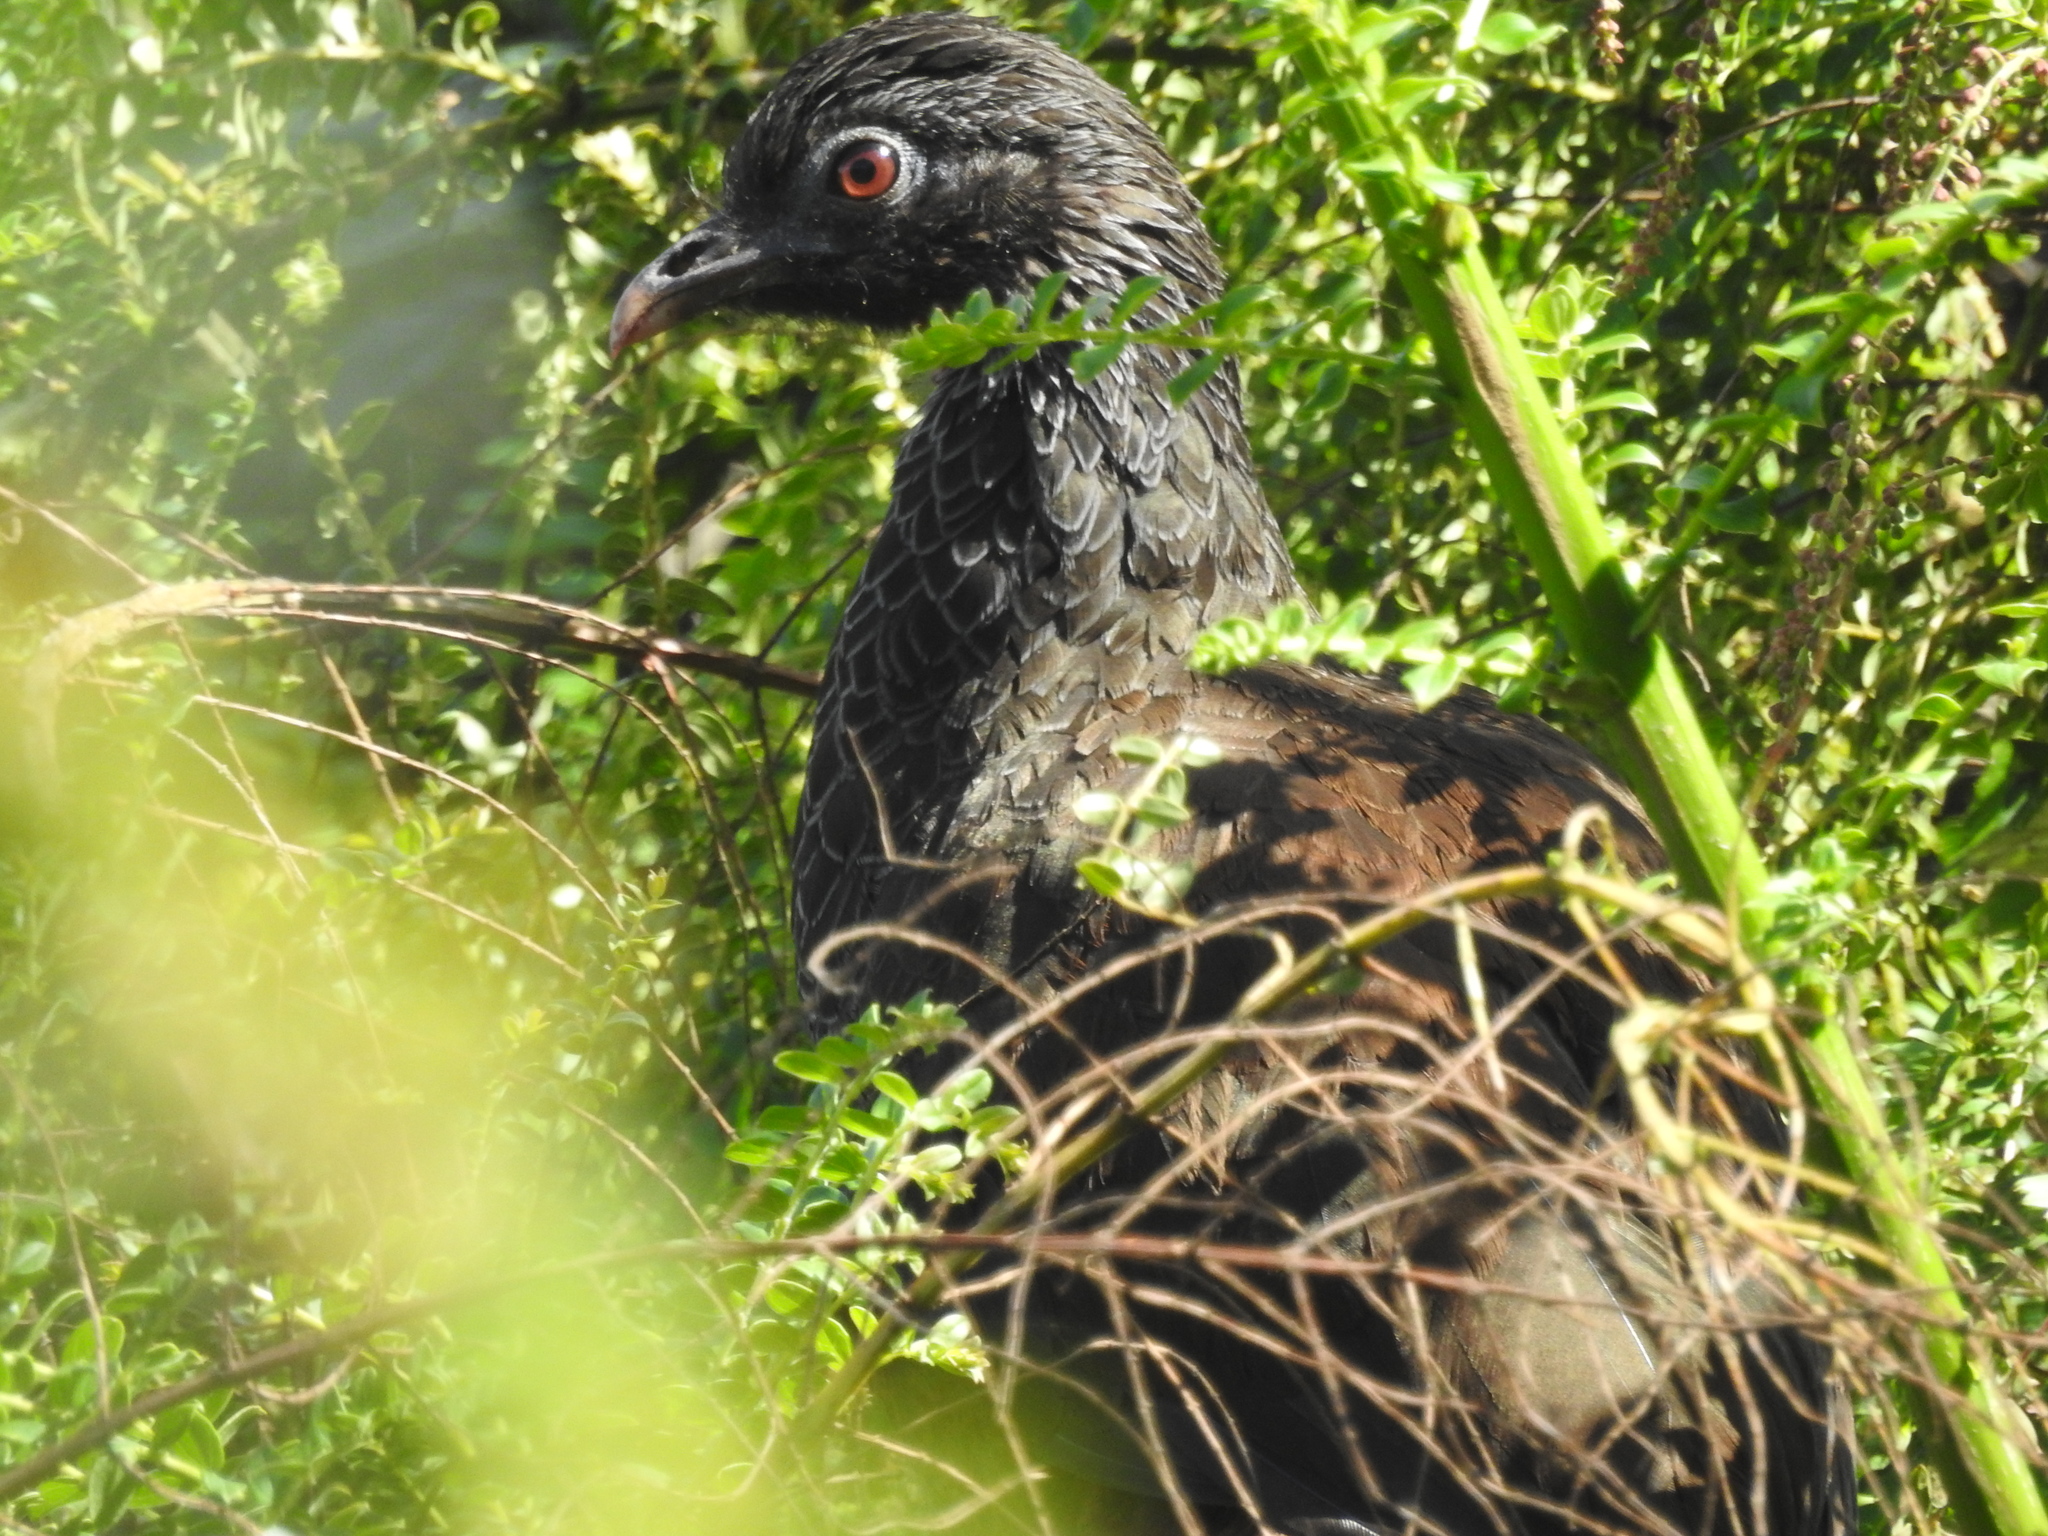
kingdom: Animalia
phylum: Chordata
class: Aves
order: Galliformes
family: Cracidae
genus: Penelope
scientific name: Penelope montagnii
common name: Andean guan
